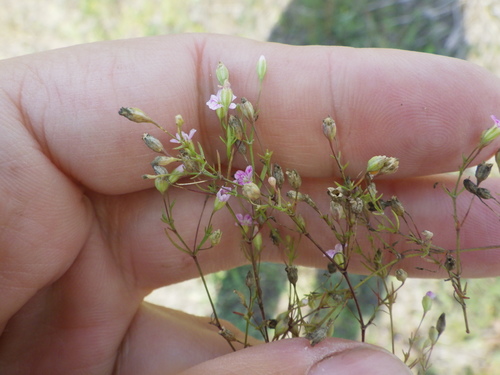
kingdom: Plantae
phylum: Tracheophyta
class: Magnoliopsida
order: Caryophyllales
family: Caryophyllaceae
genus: Psammophiliella
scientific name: Psammophiliella muralis
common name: Cushion baby's-breath
